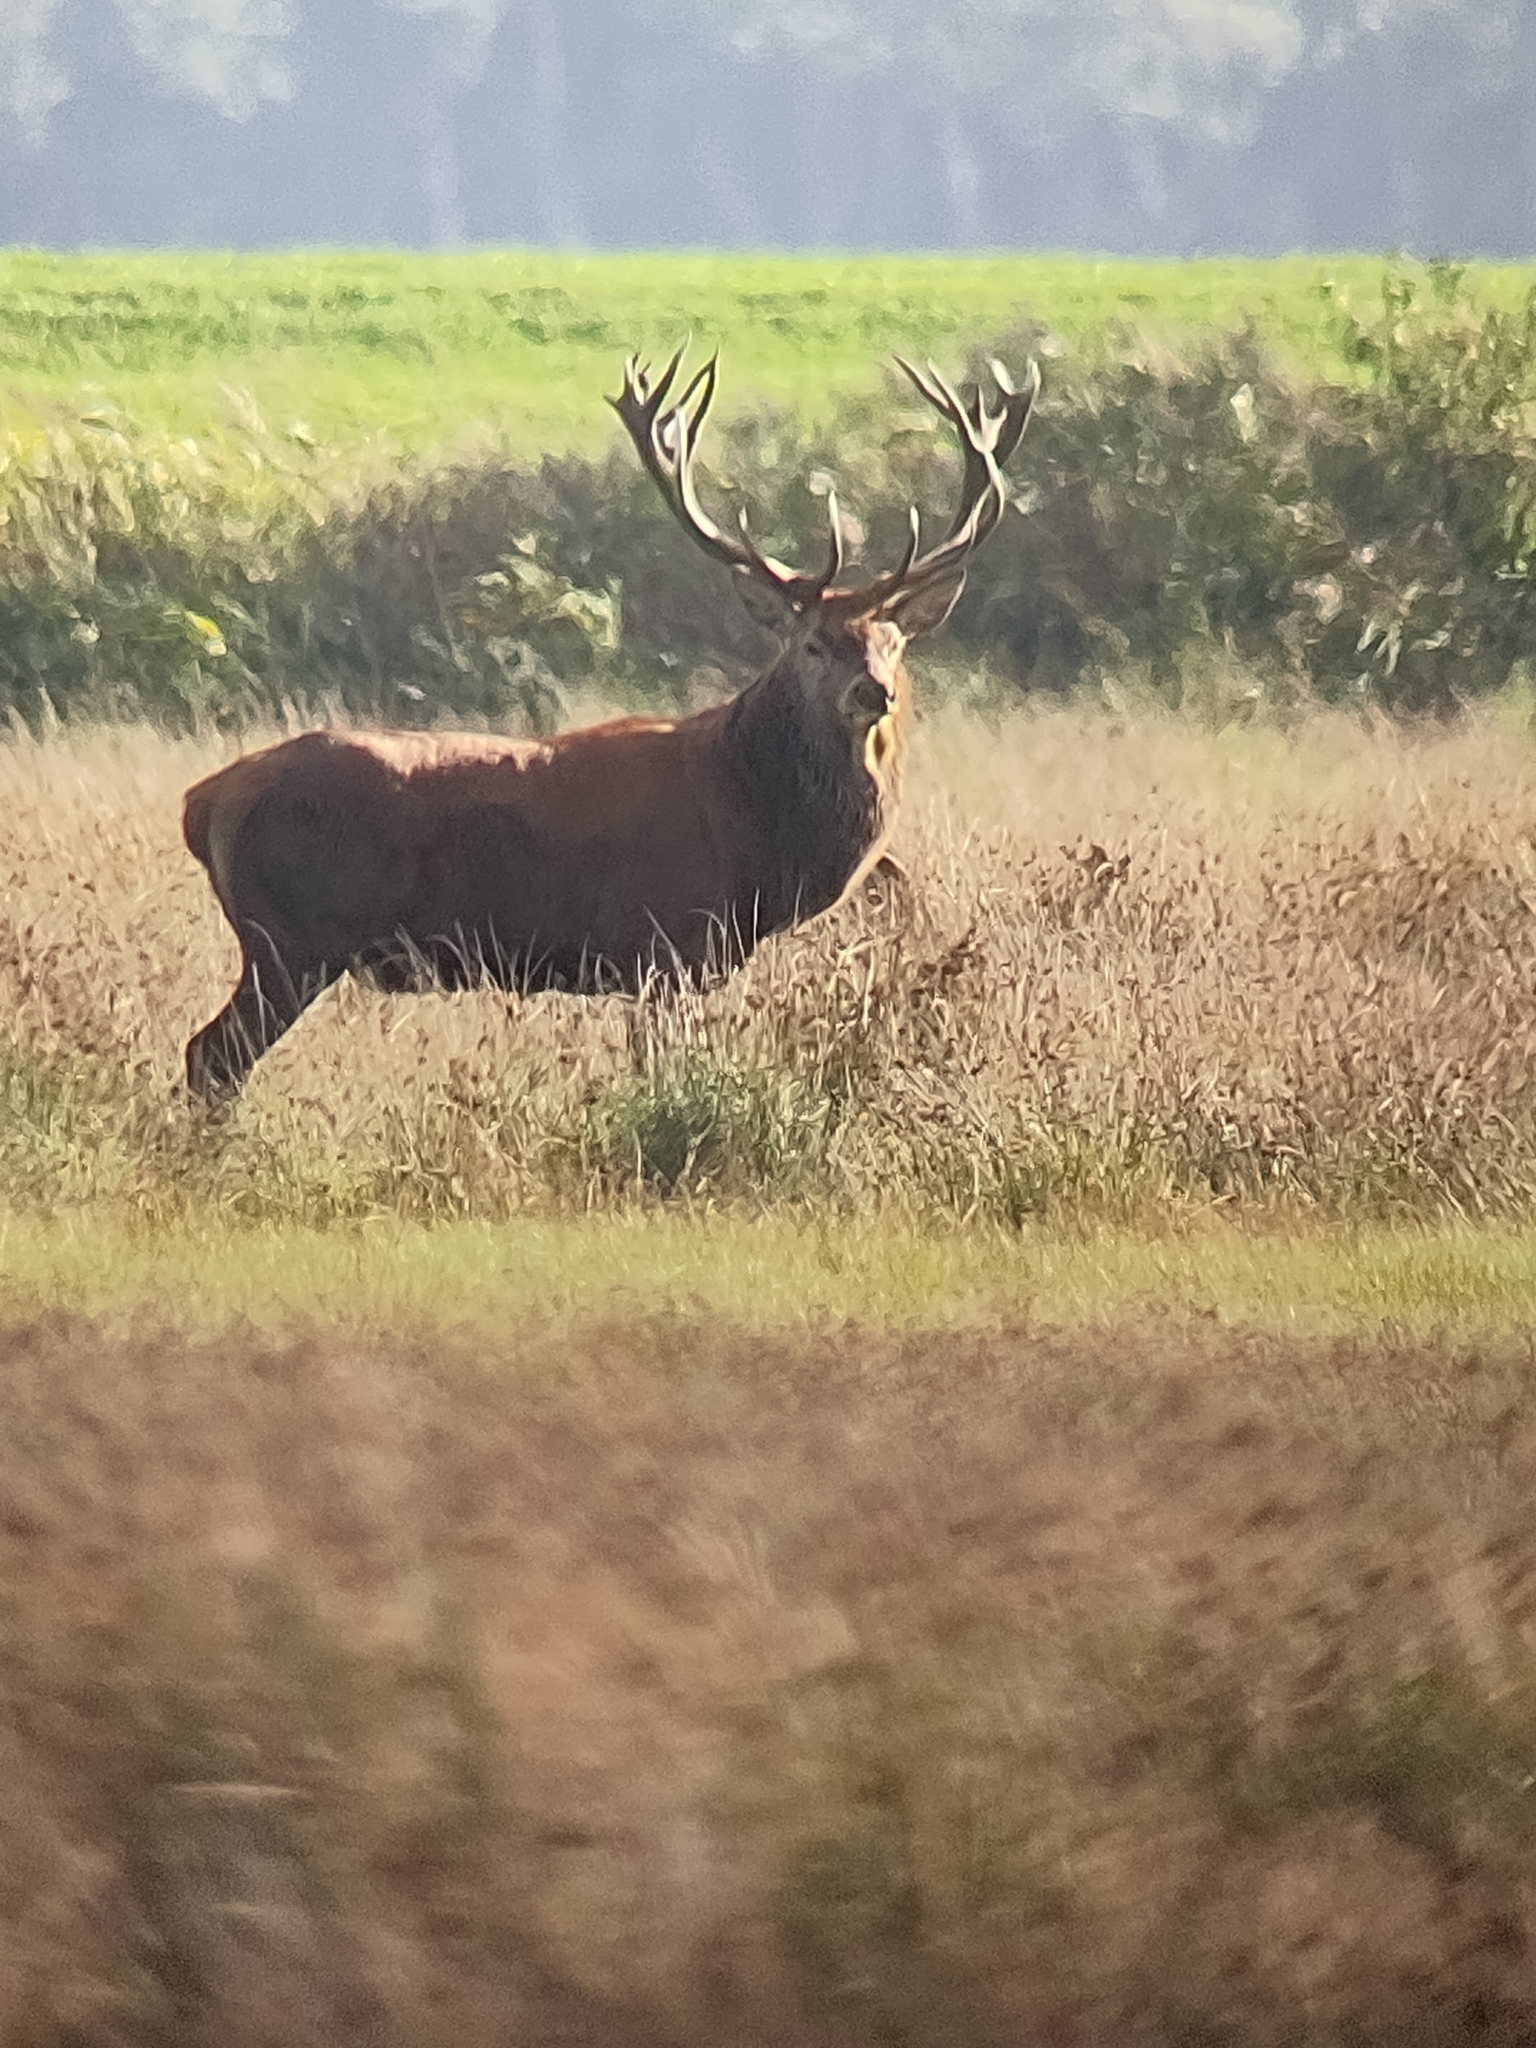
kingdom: Animalia
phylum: Chordata
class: Mammalia
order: Artiodactyla
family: Cervidae
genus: Cervus
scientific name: Cervus elaphus
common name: Red deer
